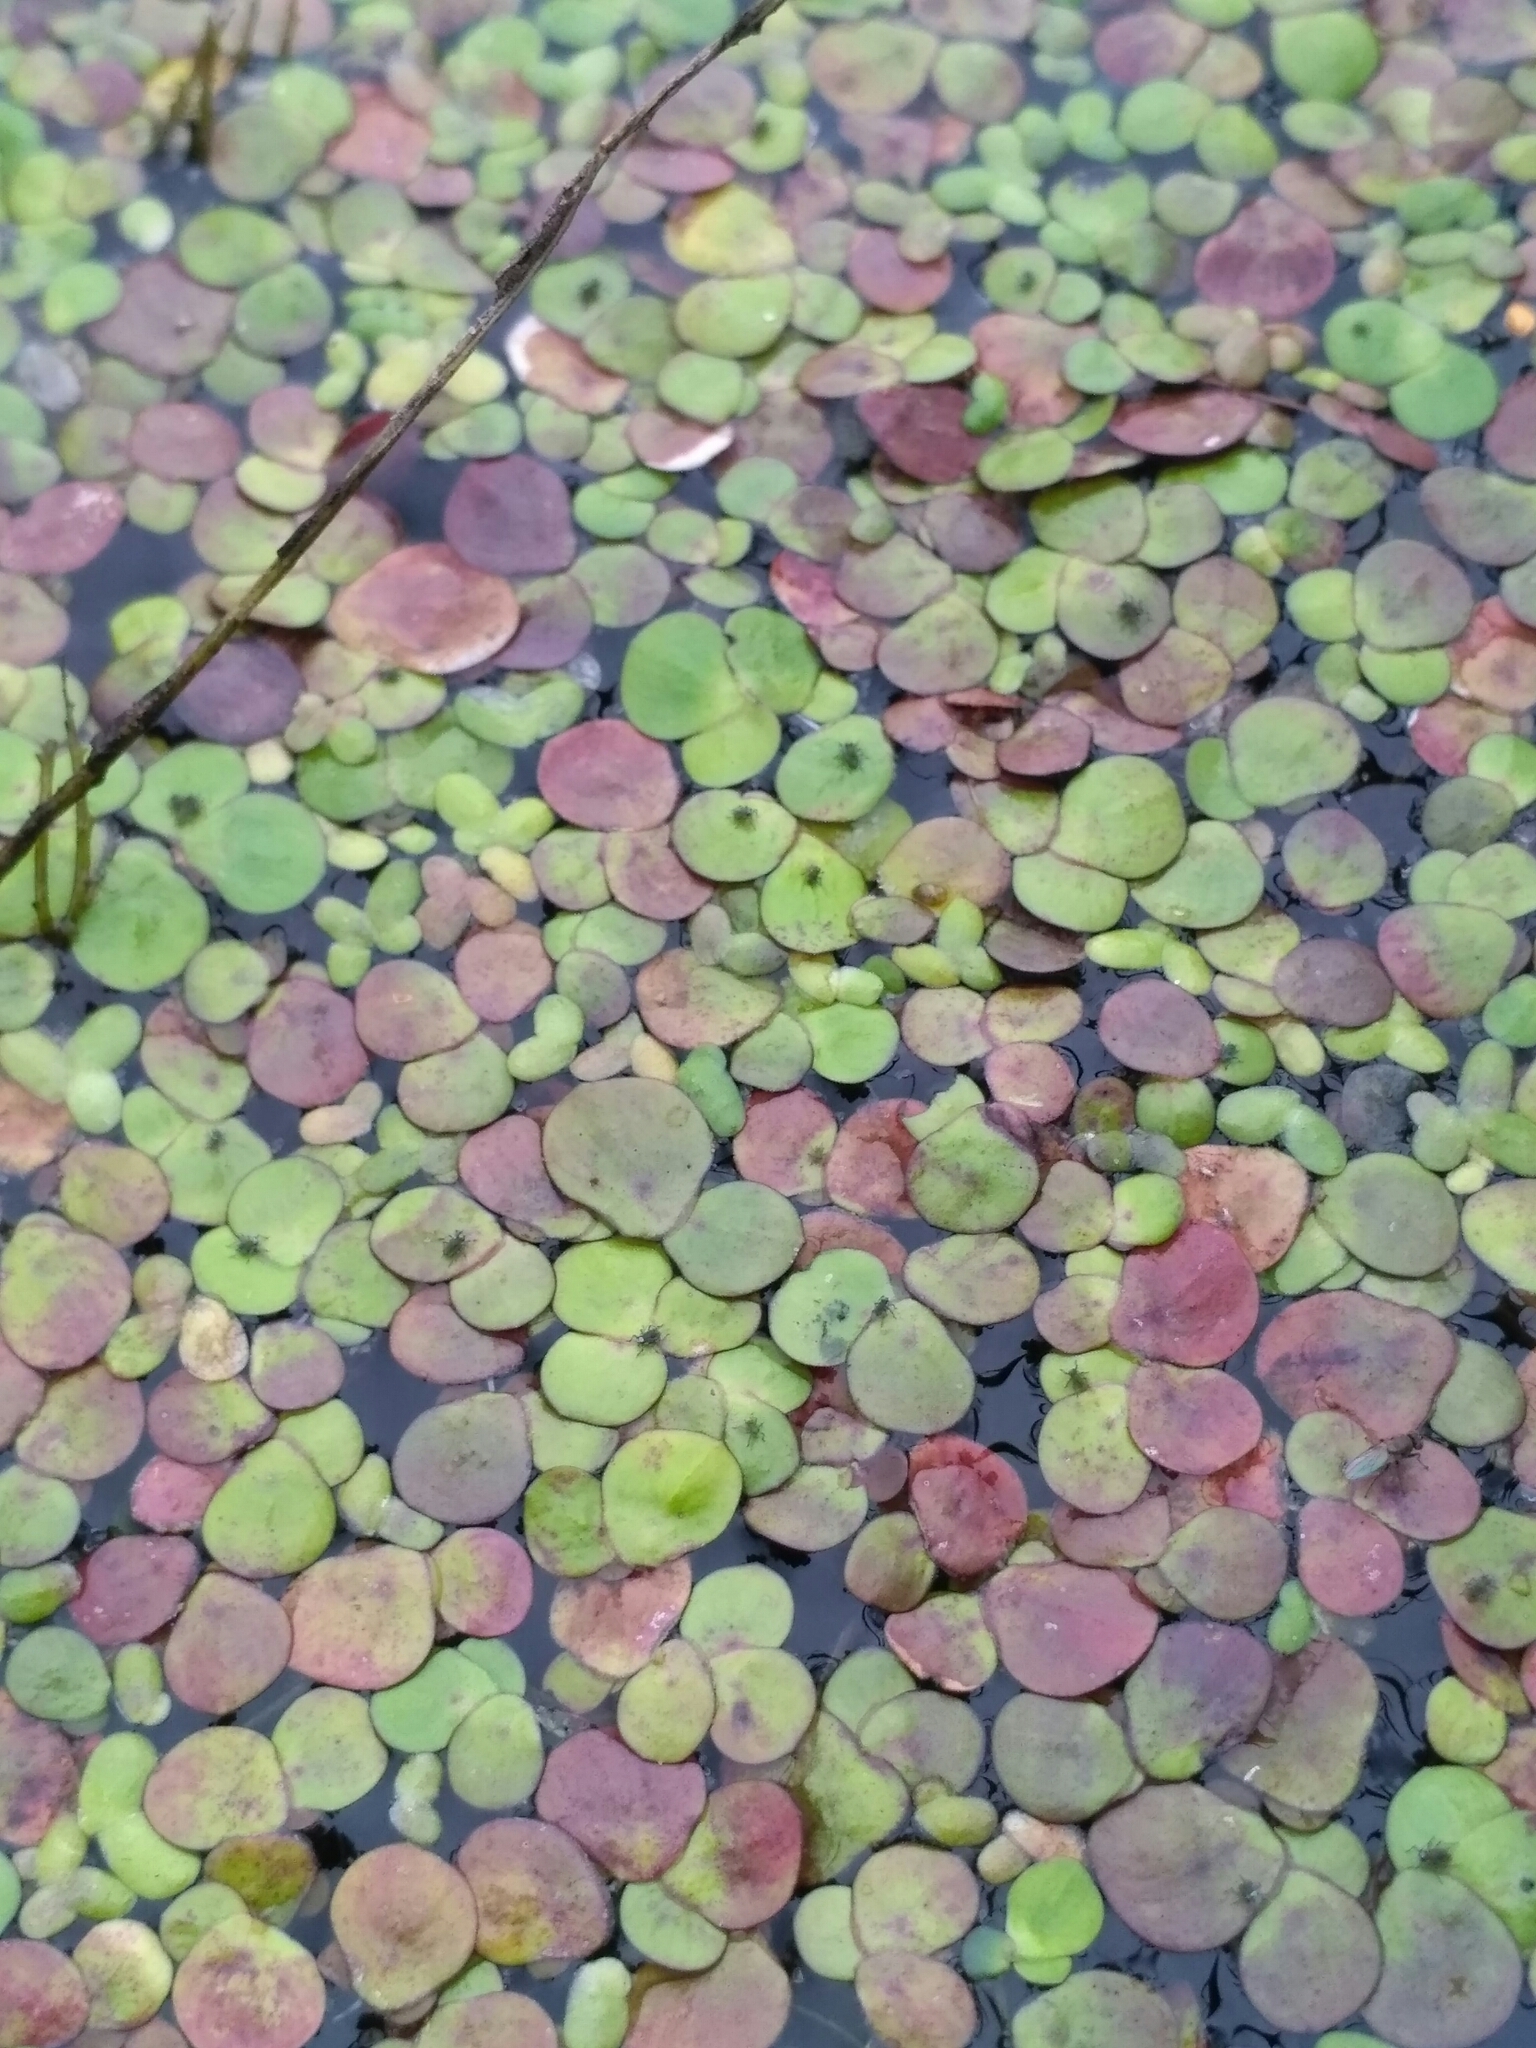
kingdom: Plantae
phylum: Tracheophyta
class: Liliopsida
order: Alismatales
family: Araceae
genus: Spirodela
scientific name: Spirodela polyrhiza
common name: Great duckweed
